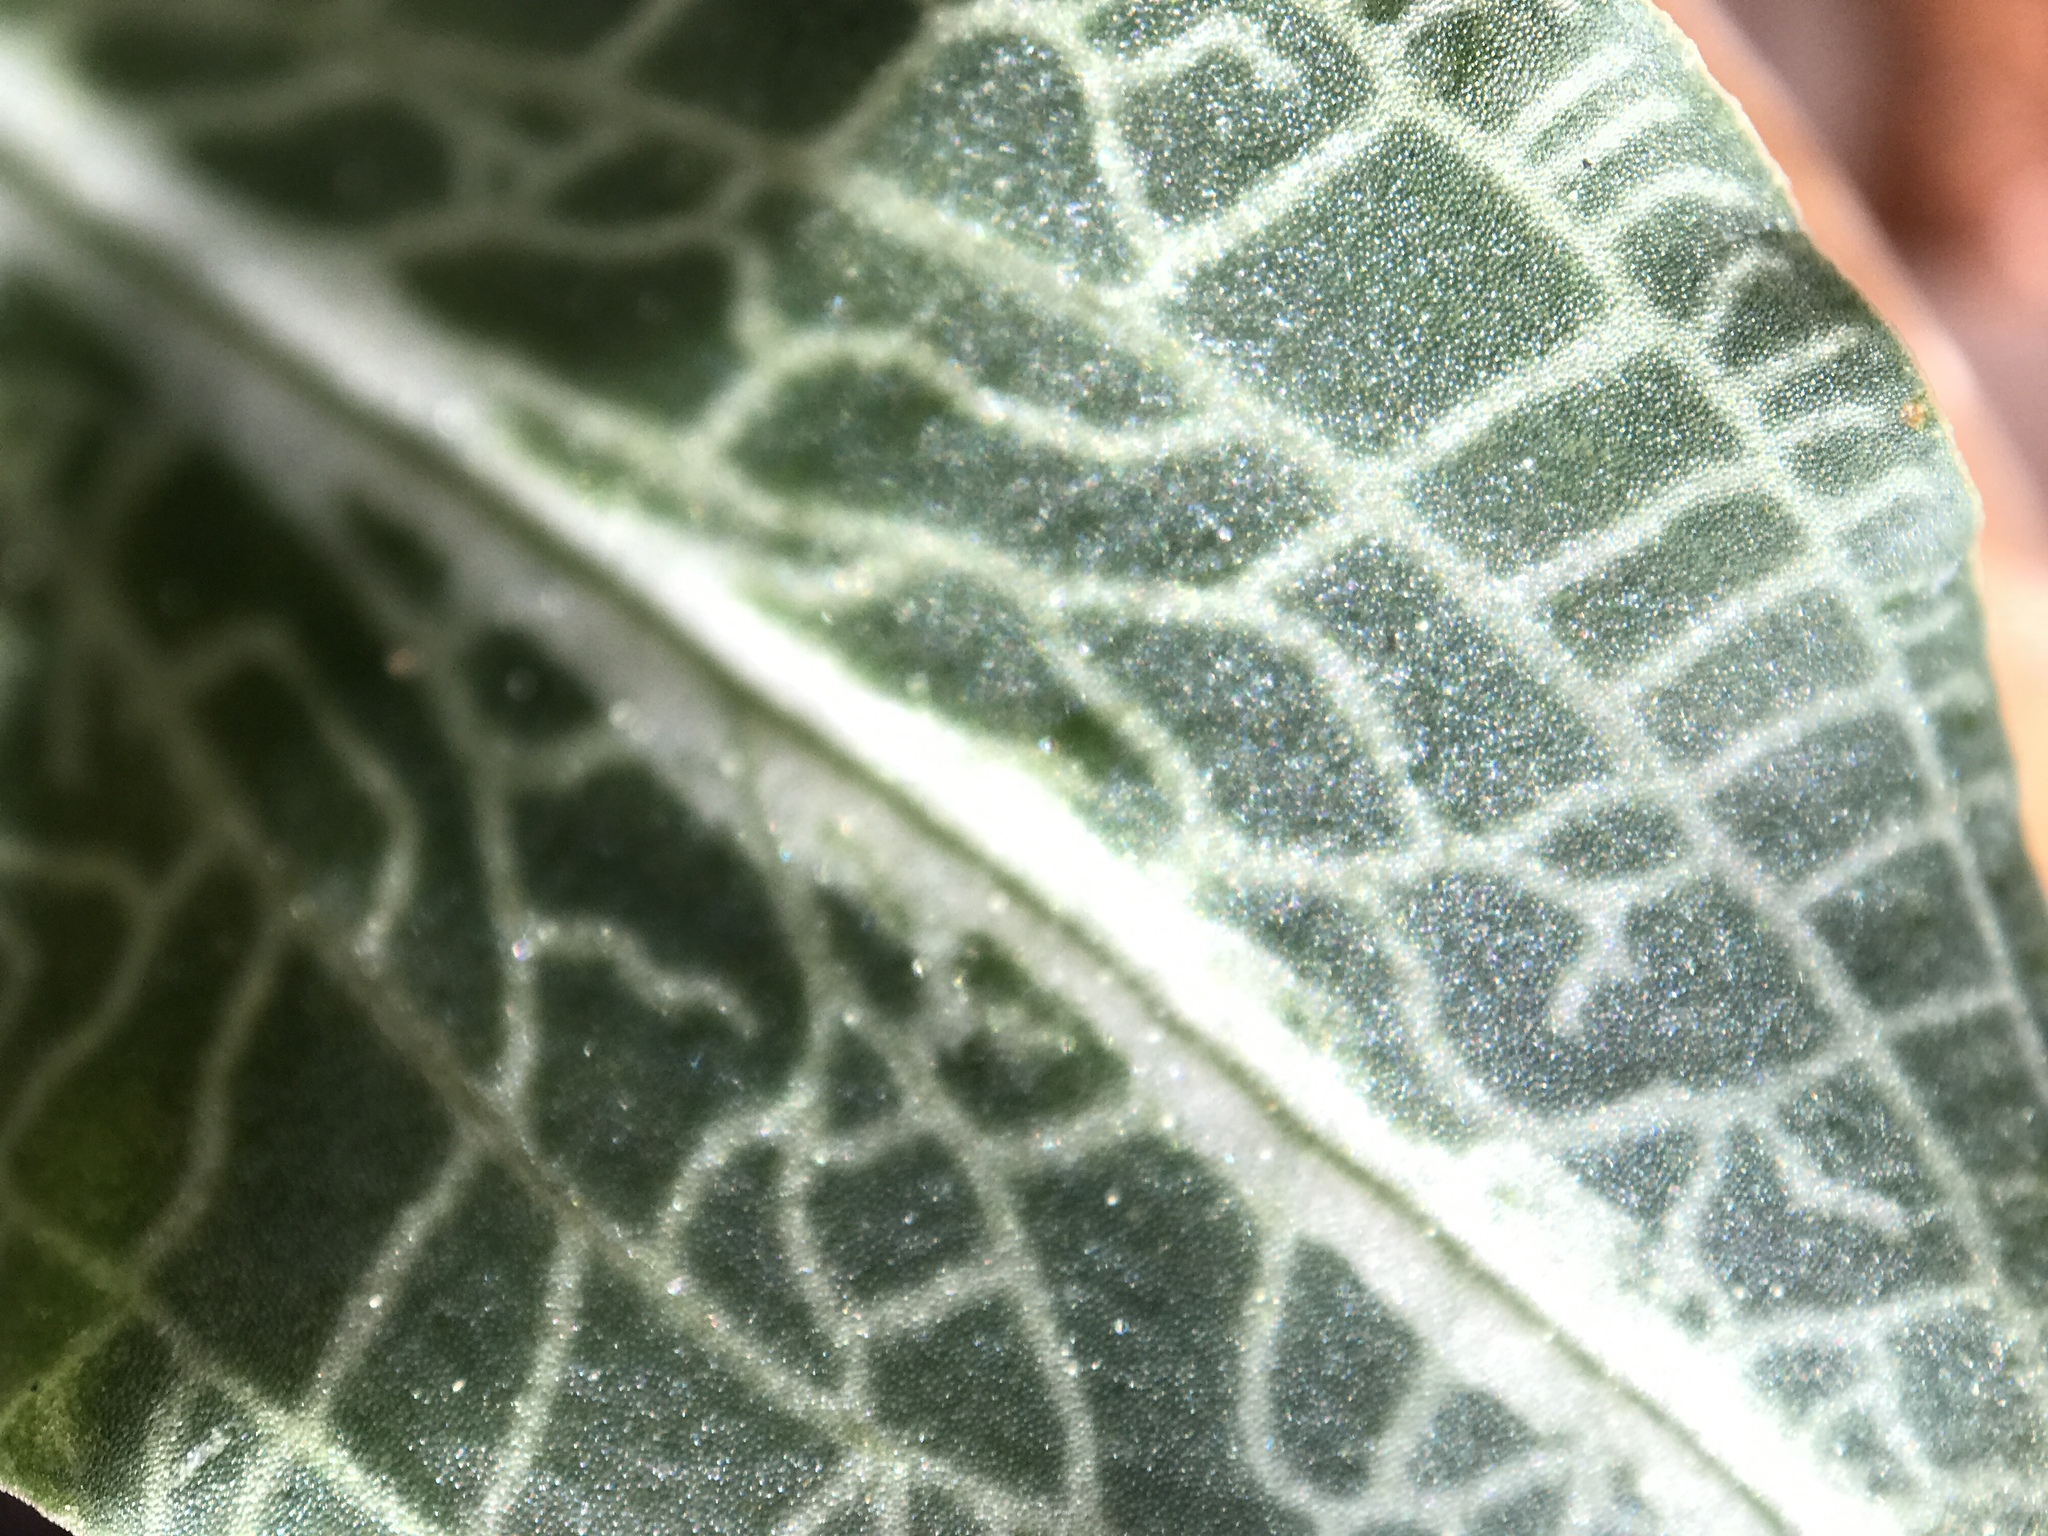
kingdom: Plantae
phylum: Tracheophyta
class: Liliopsida
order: Asparagales
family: Orchidaceae
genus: Goodyera
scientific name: Goodyera pubescens
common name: Downy rattlesnake-plantain
